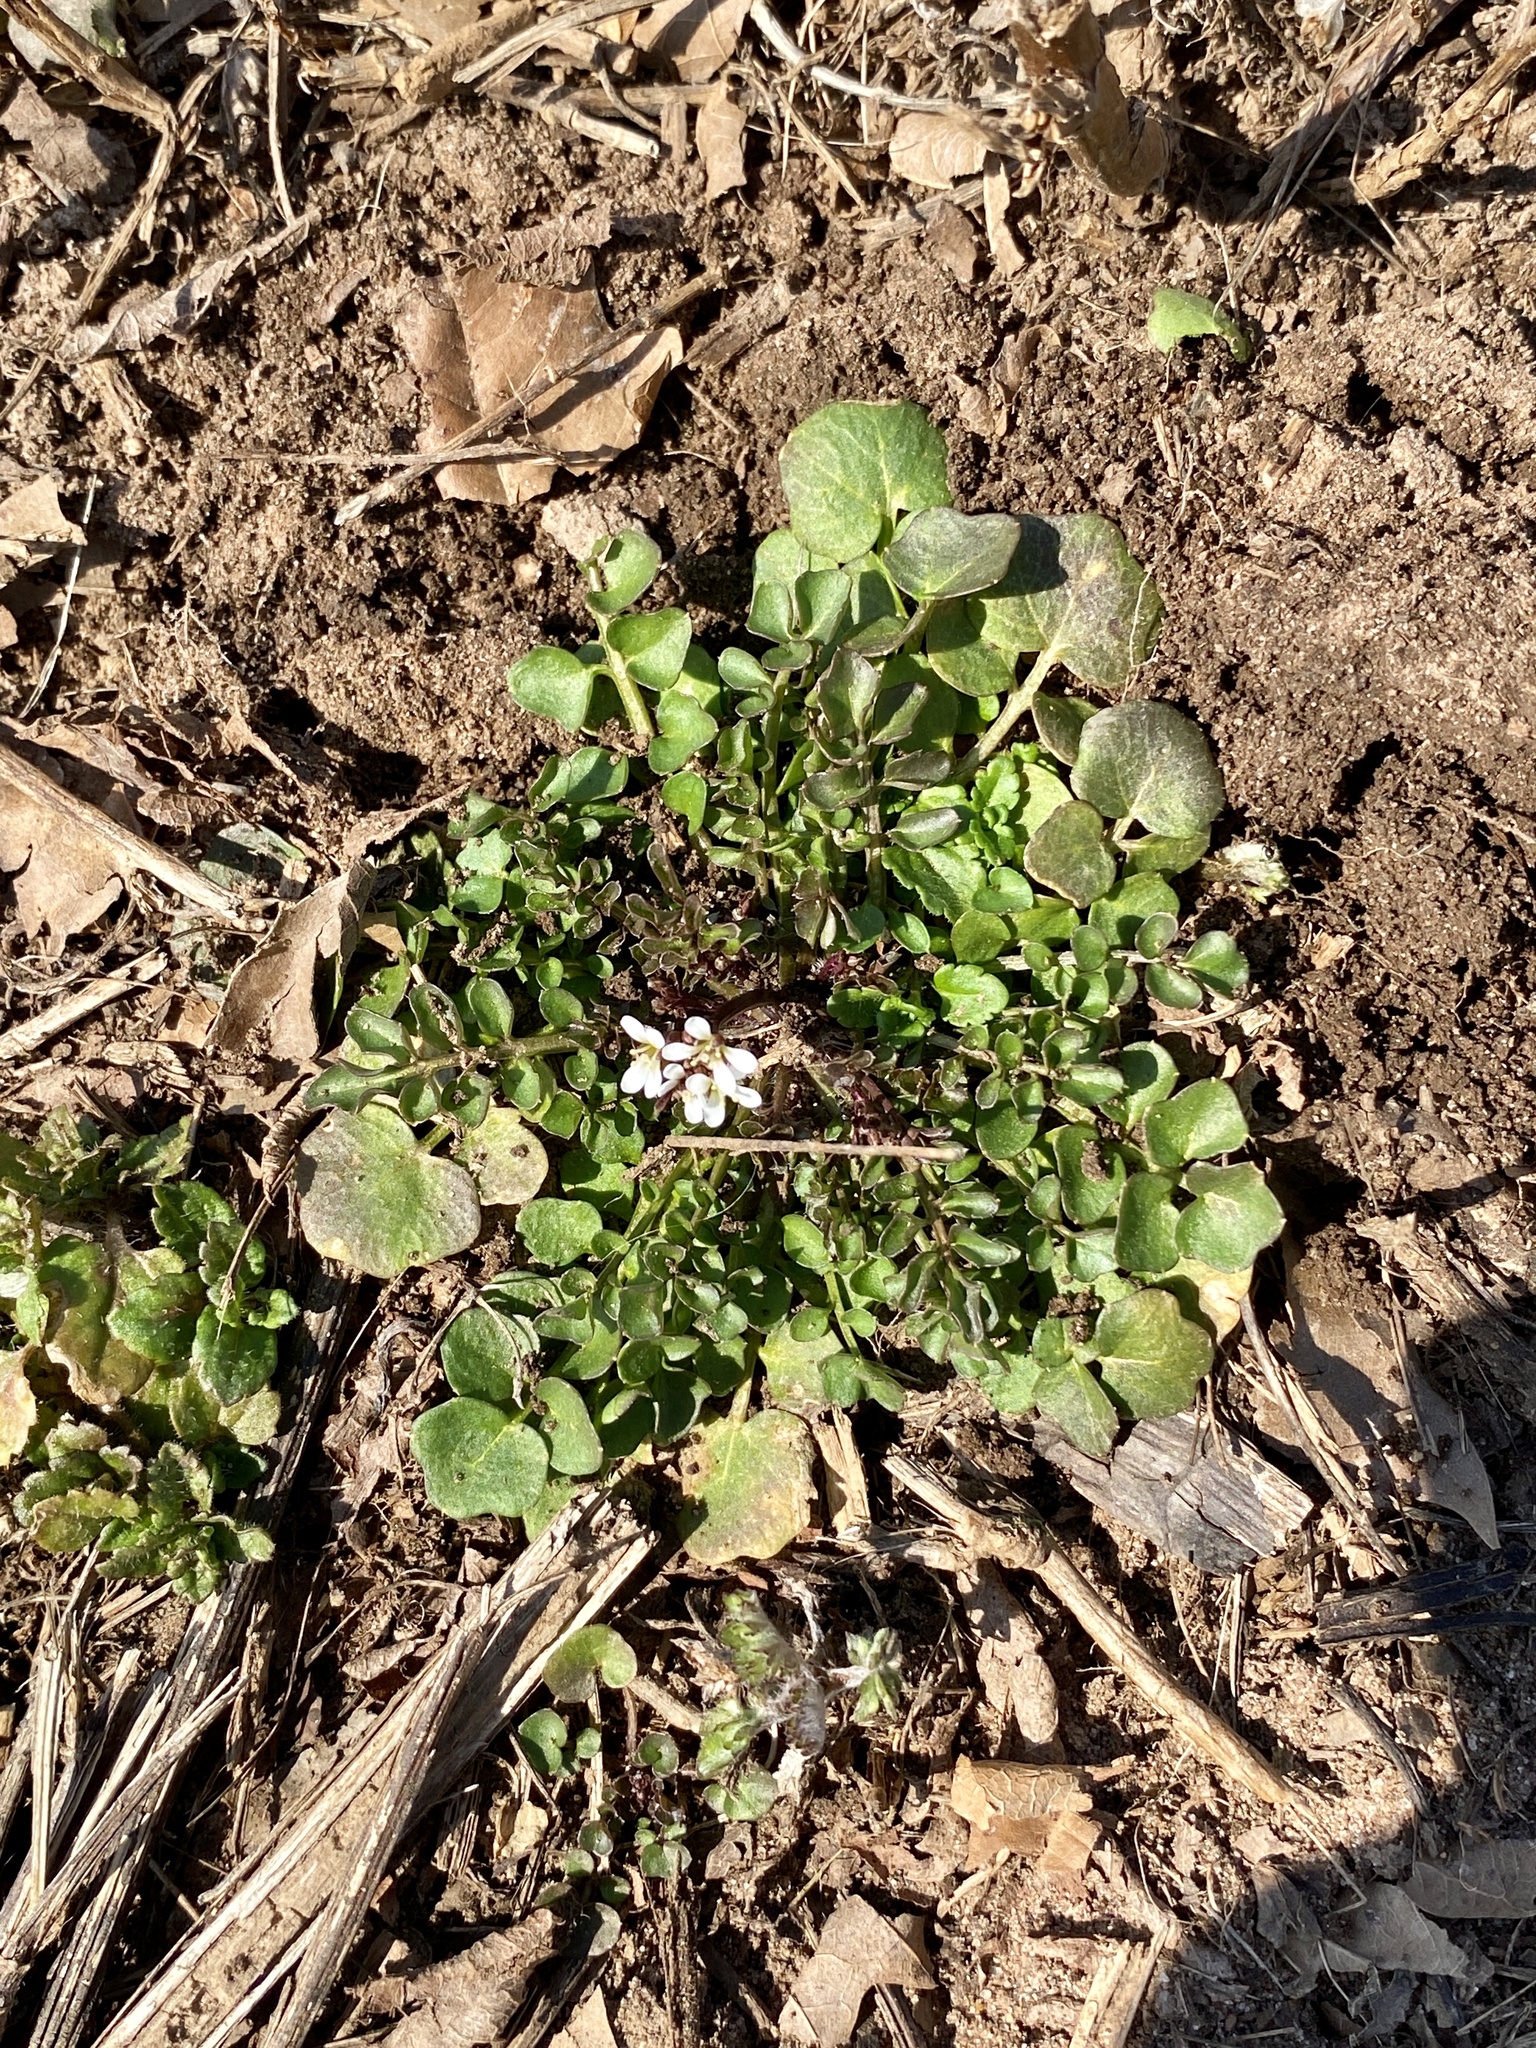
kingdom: Plantae
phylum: Tracheophyta
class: Magnoliopsida
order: Brassicales
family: Brassicaceae
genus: Cardamine
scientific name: Cardamine hirsuta
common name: Hairy bittercress
